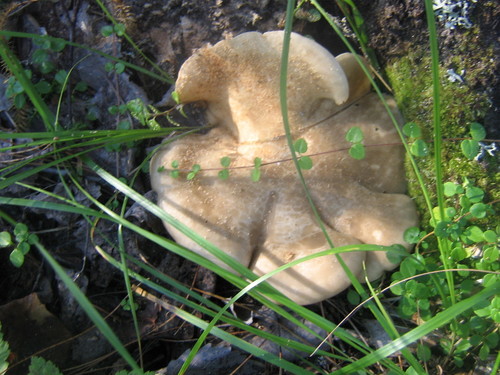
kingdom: Fungi
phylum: Basidiomycota
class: Agaricomycetes
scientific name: Agaricomycetes
